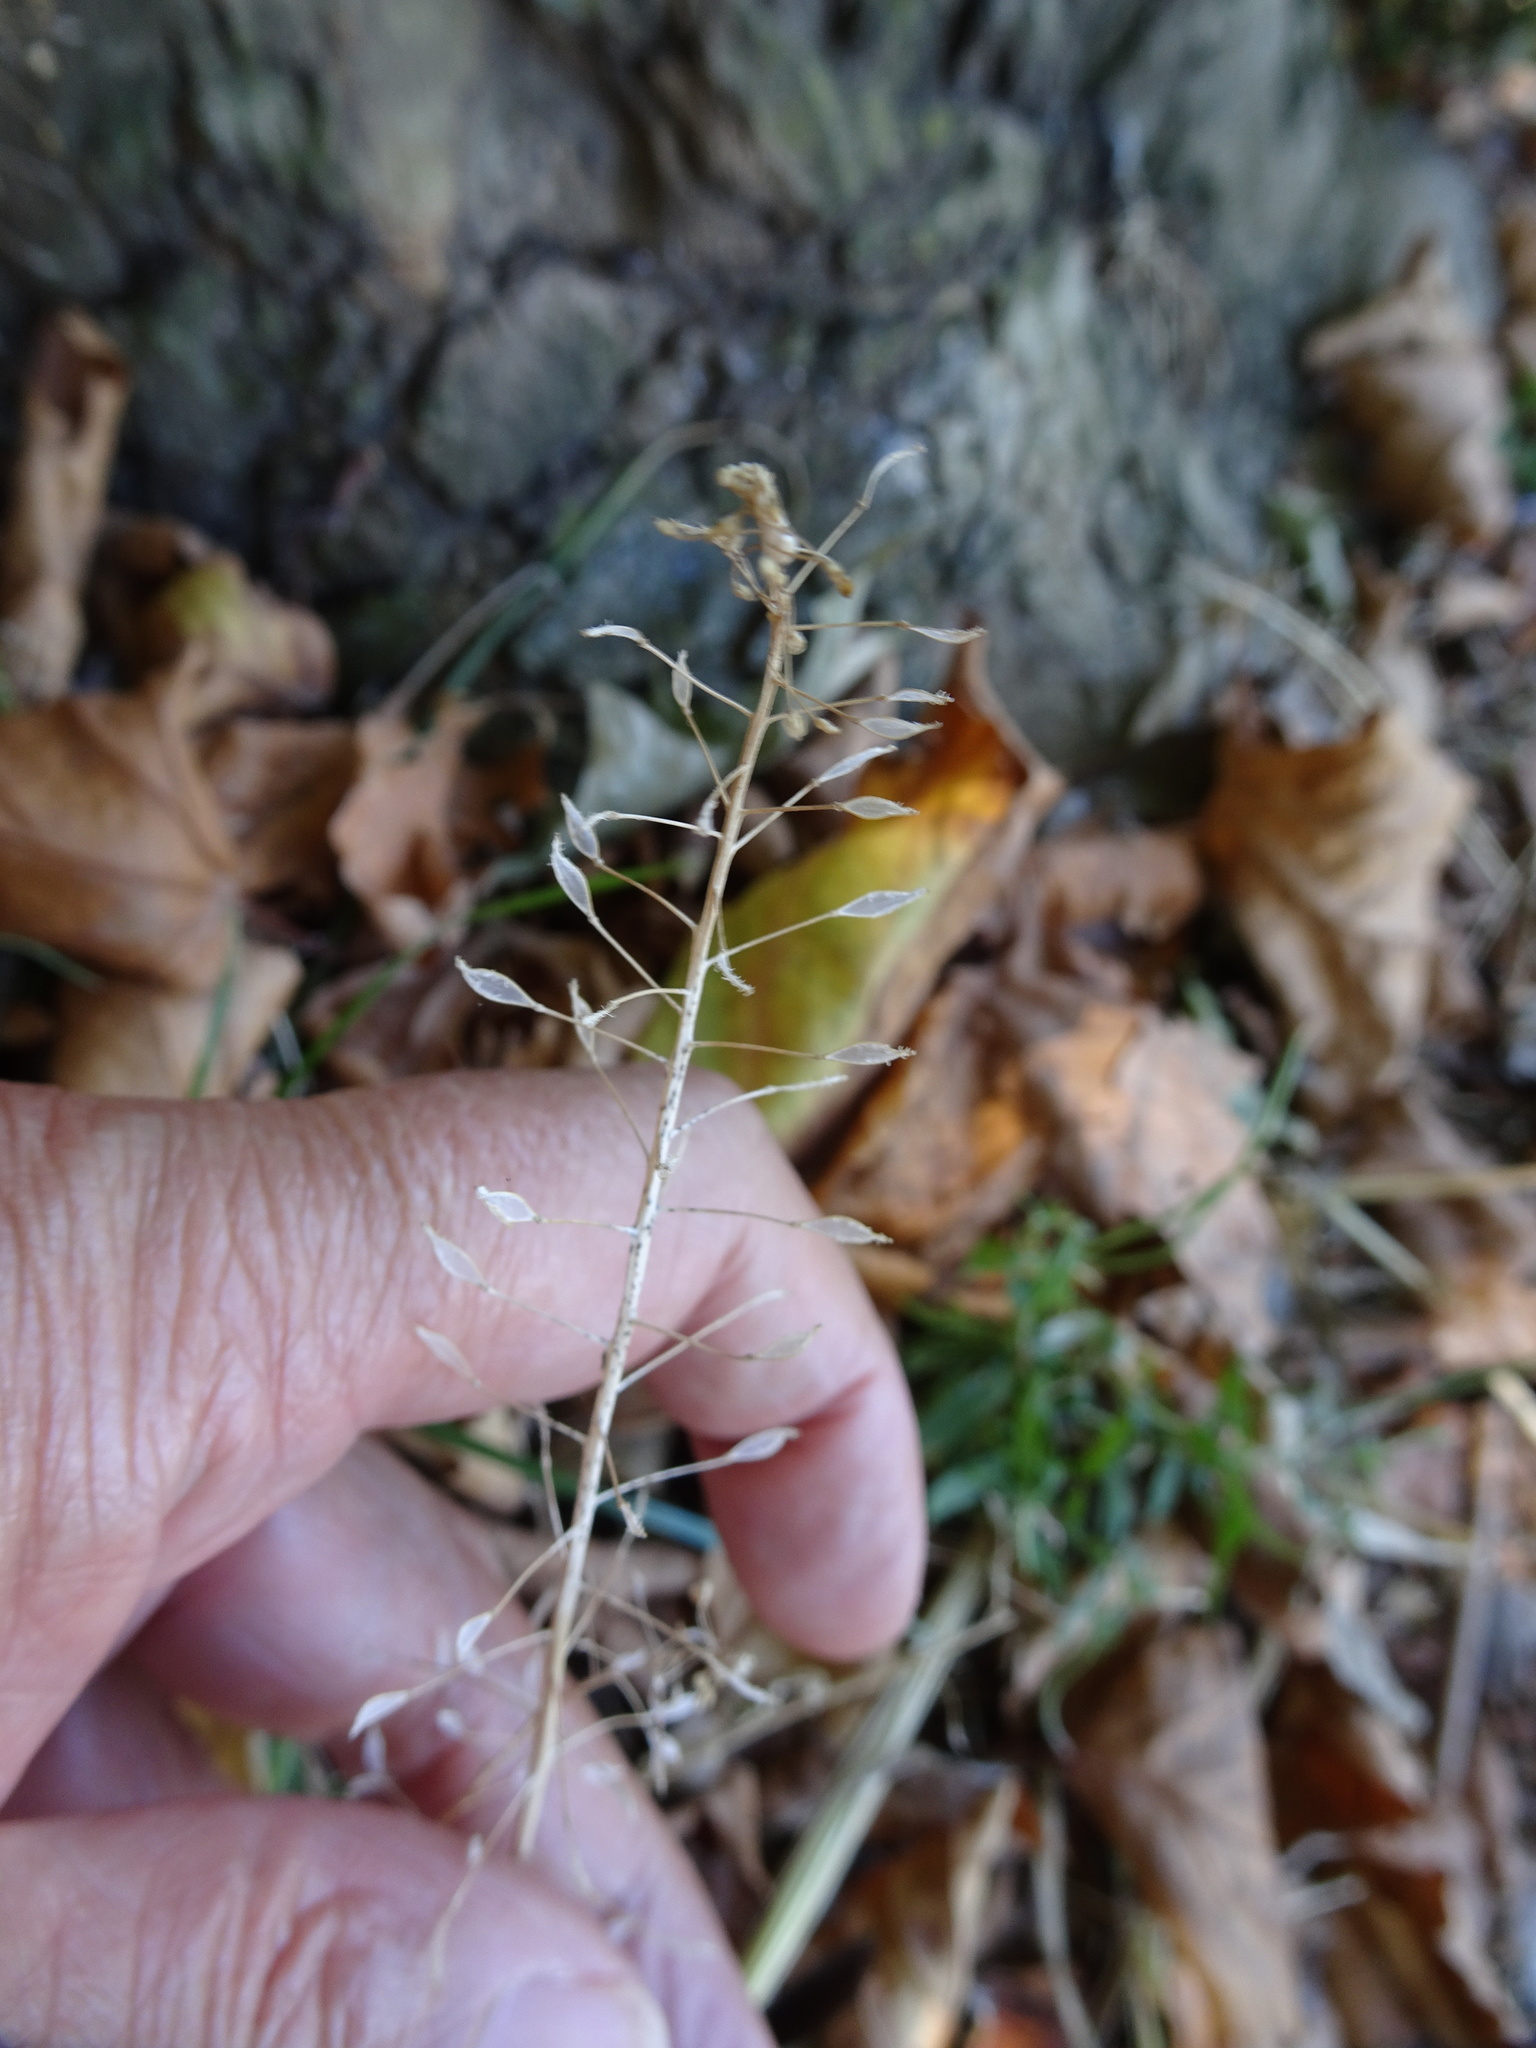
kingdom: Plantae
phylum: Tracheophyta
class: Magnoliopsida
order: Brassicales
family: Brassicaceae
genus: Capsella
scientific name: Capsella bursa-pastoris
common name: Shepherd's purse
